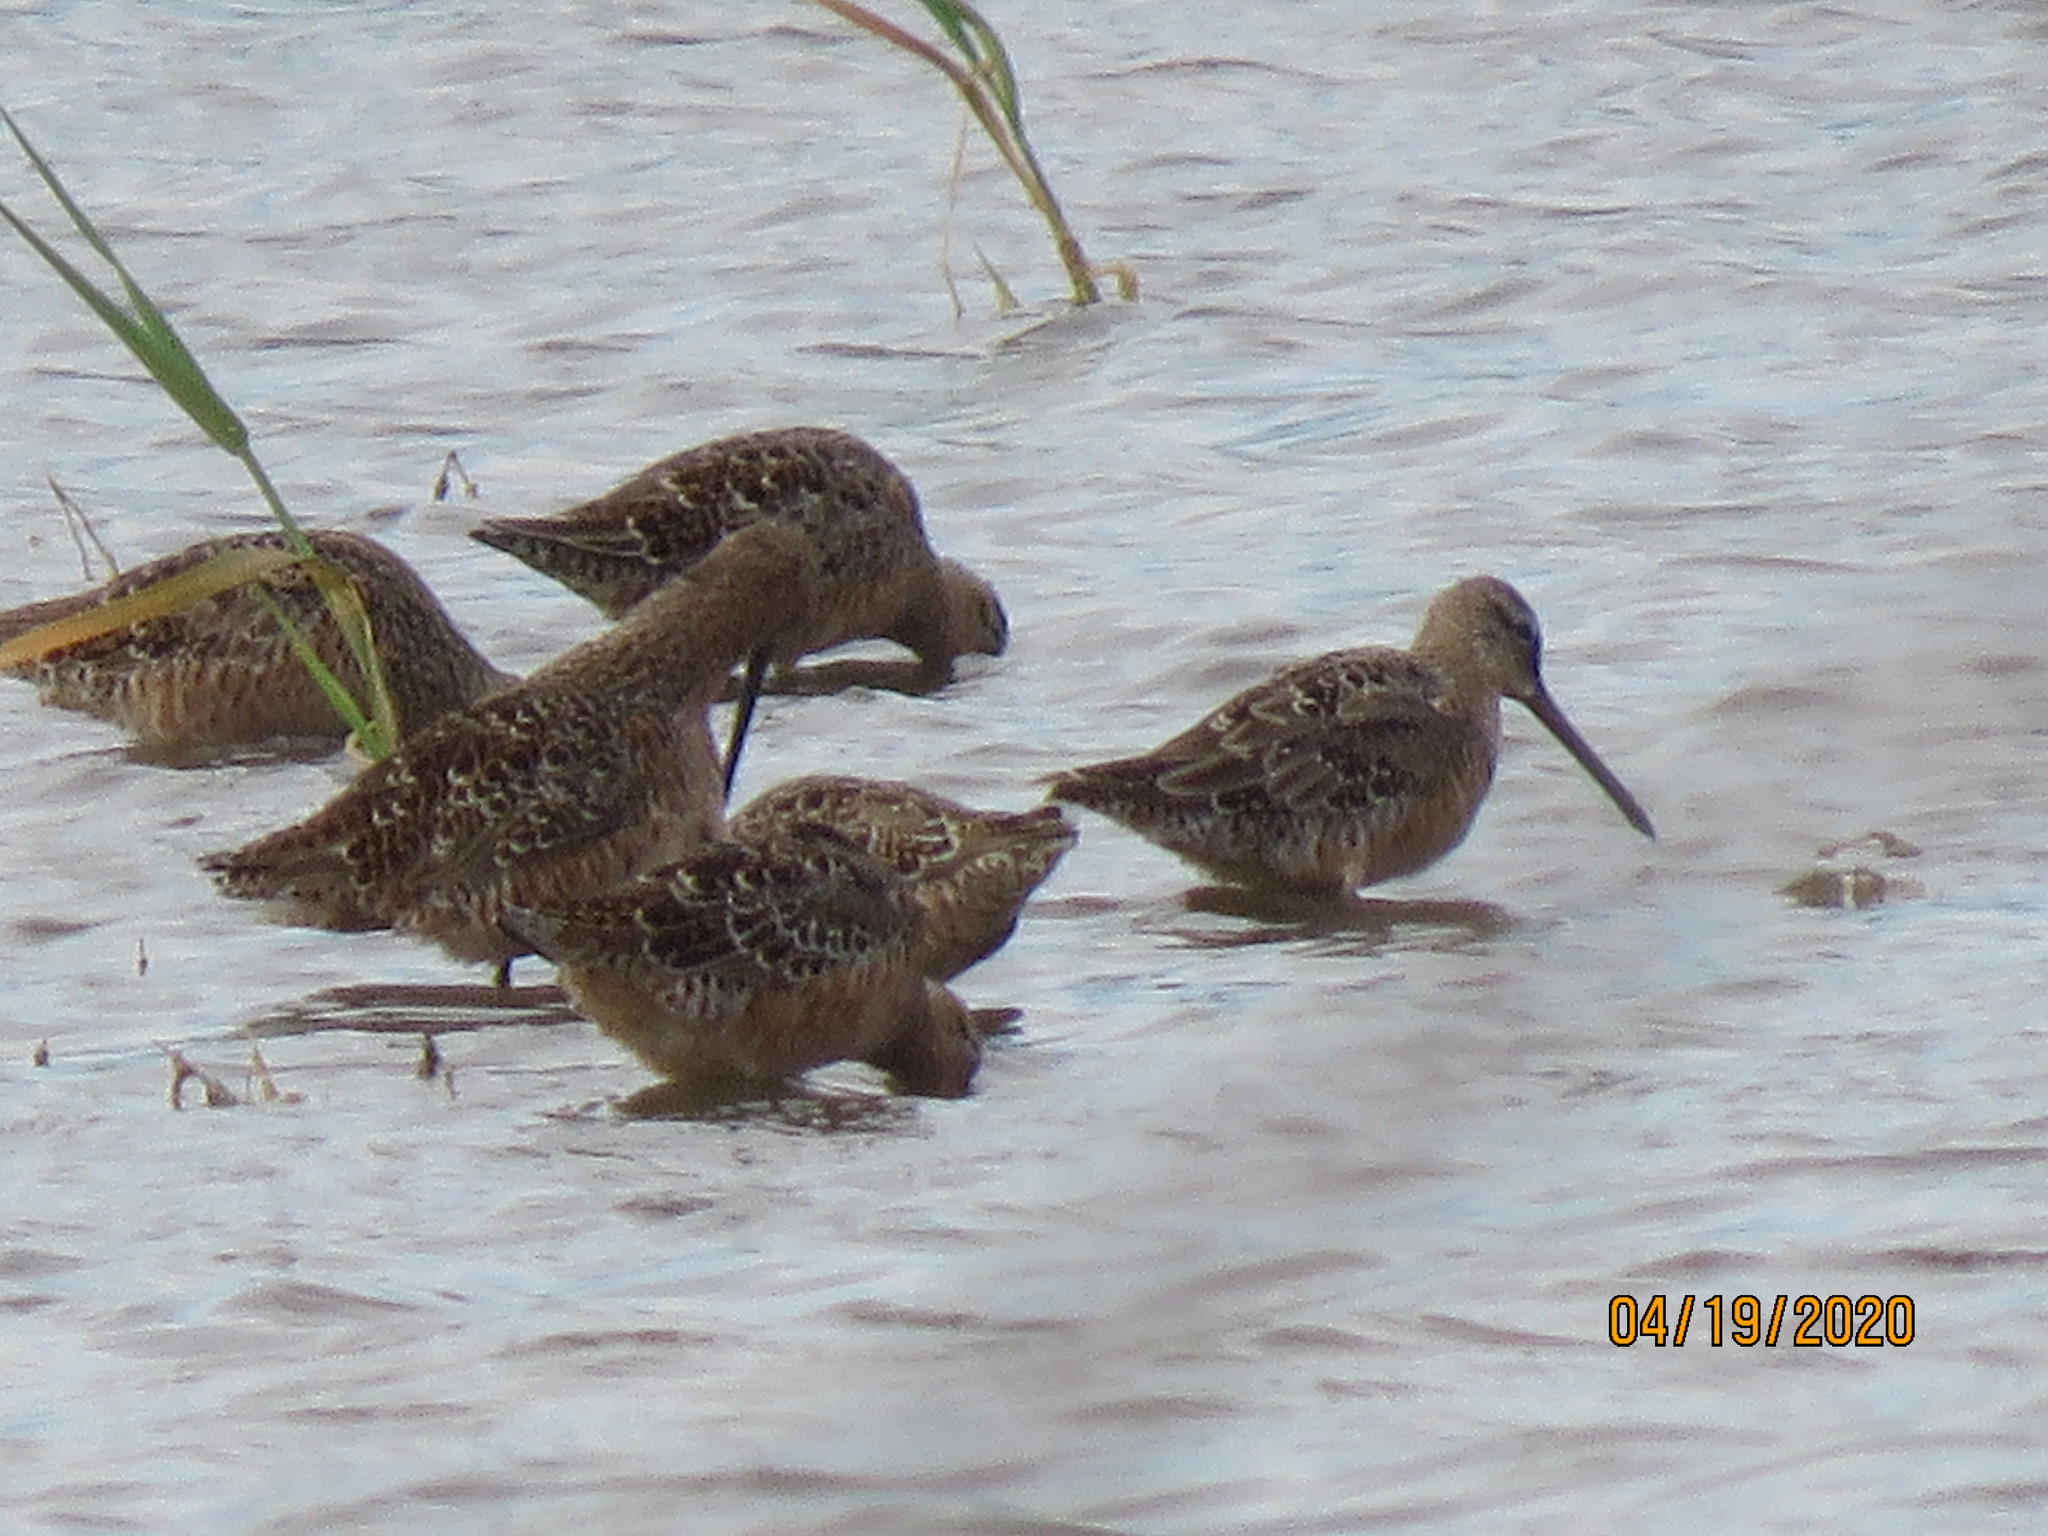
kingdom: Animalia
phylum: Chordata
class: Aves
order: Charadriiformes
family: Scolopacidae
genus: Limnodromus
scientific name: Limnodromus scolopaceus
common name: Long-billed dowitcher
